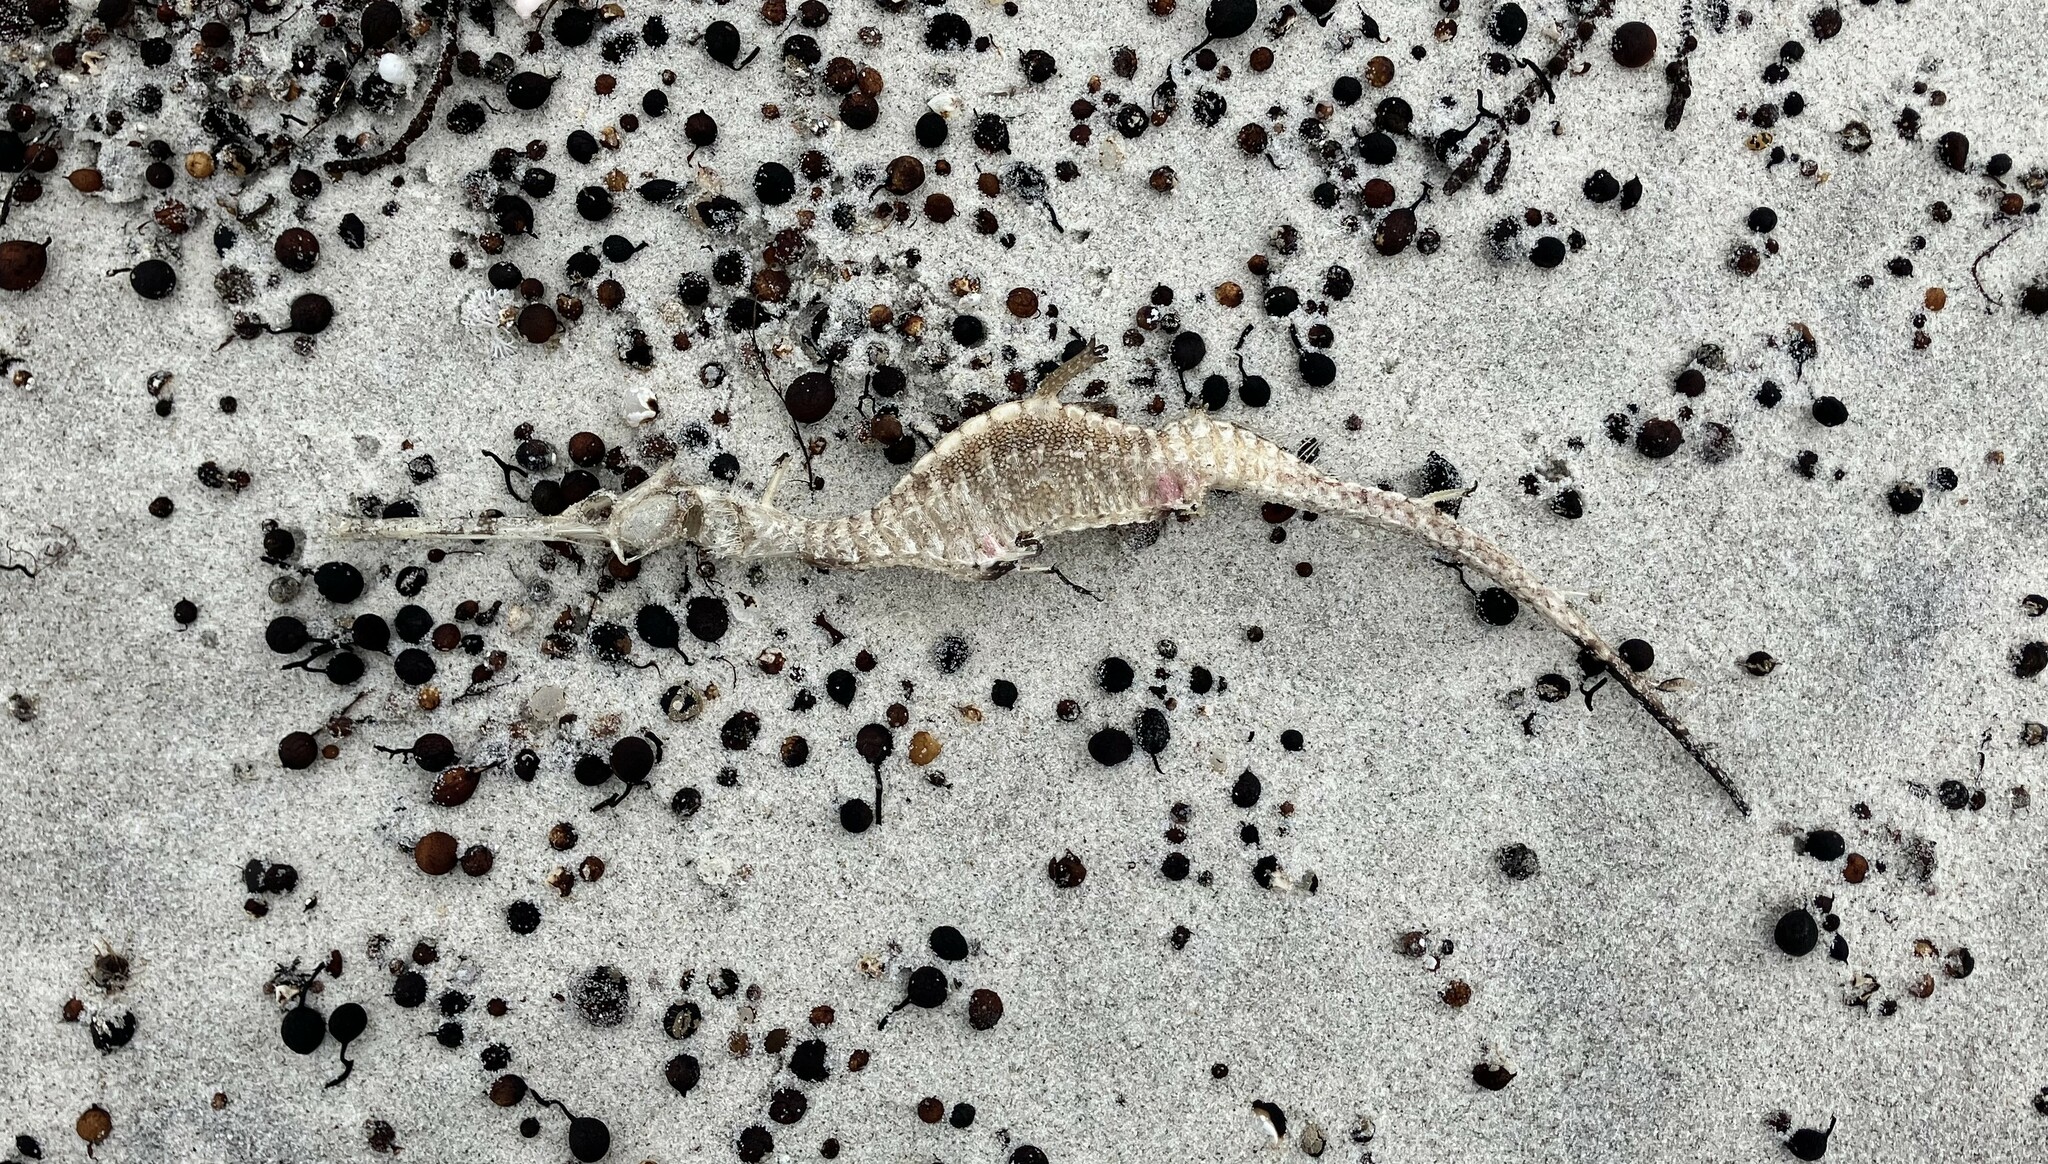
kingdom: Animalia
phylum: Chordata
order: Syngnathiformes
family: Syngnathidae
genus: Phyllopteryx
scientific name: Phyllopteryx taeniolatus
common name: Common seadragon
